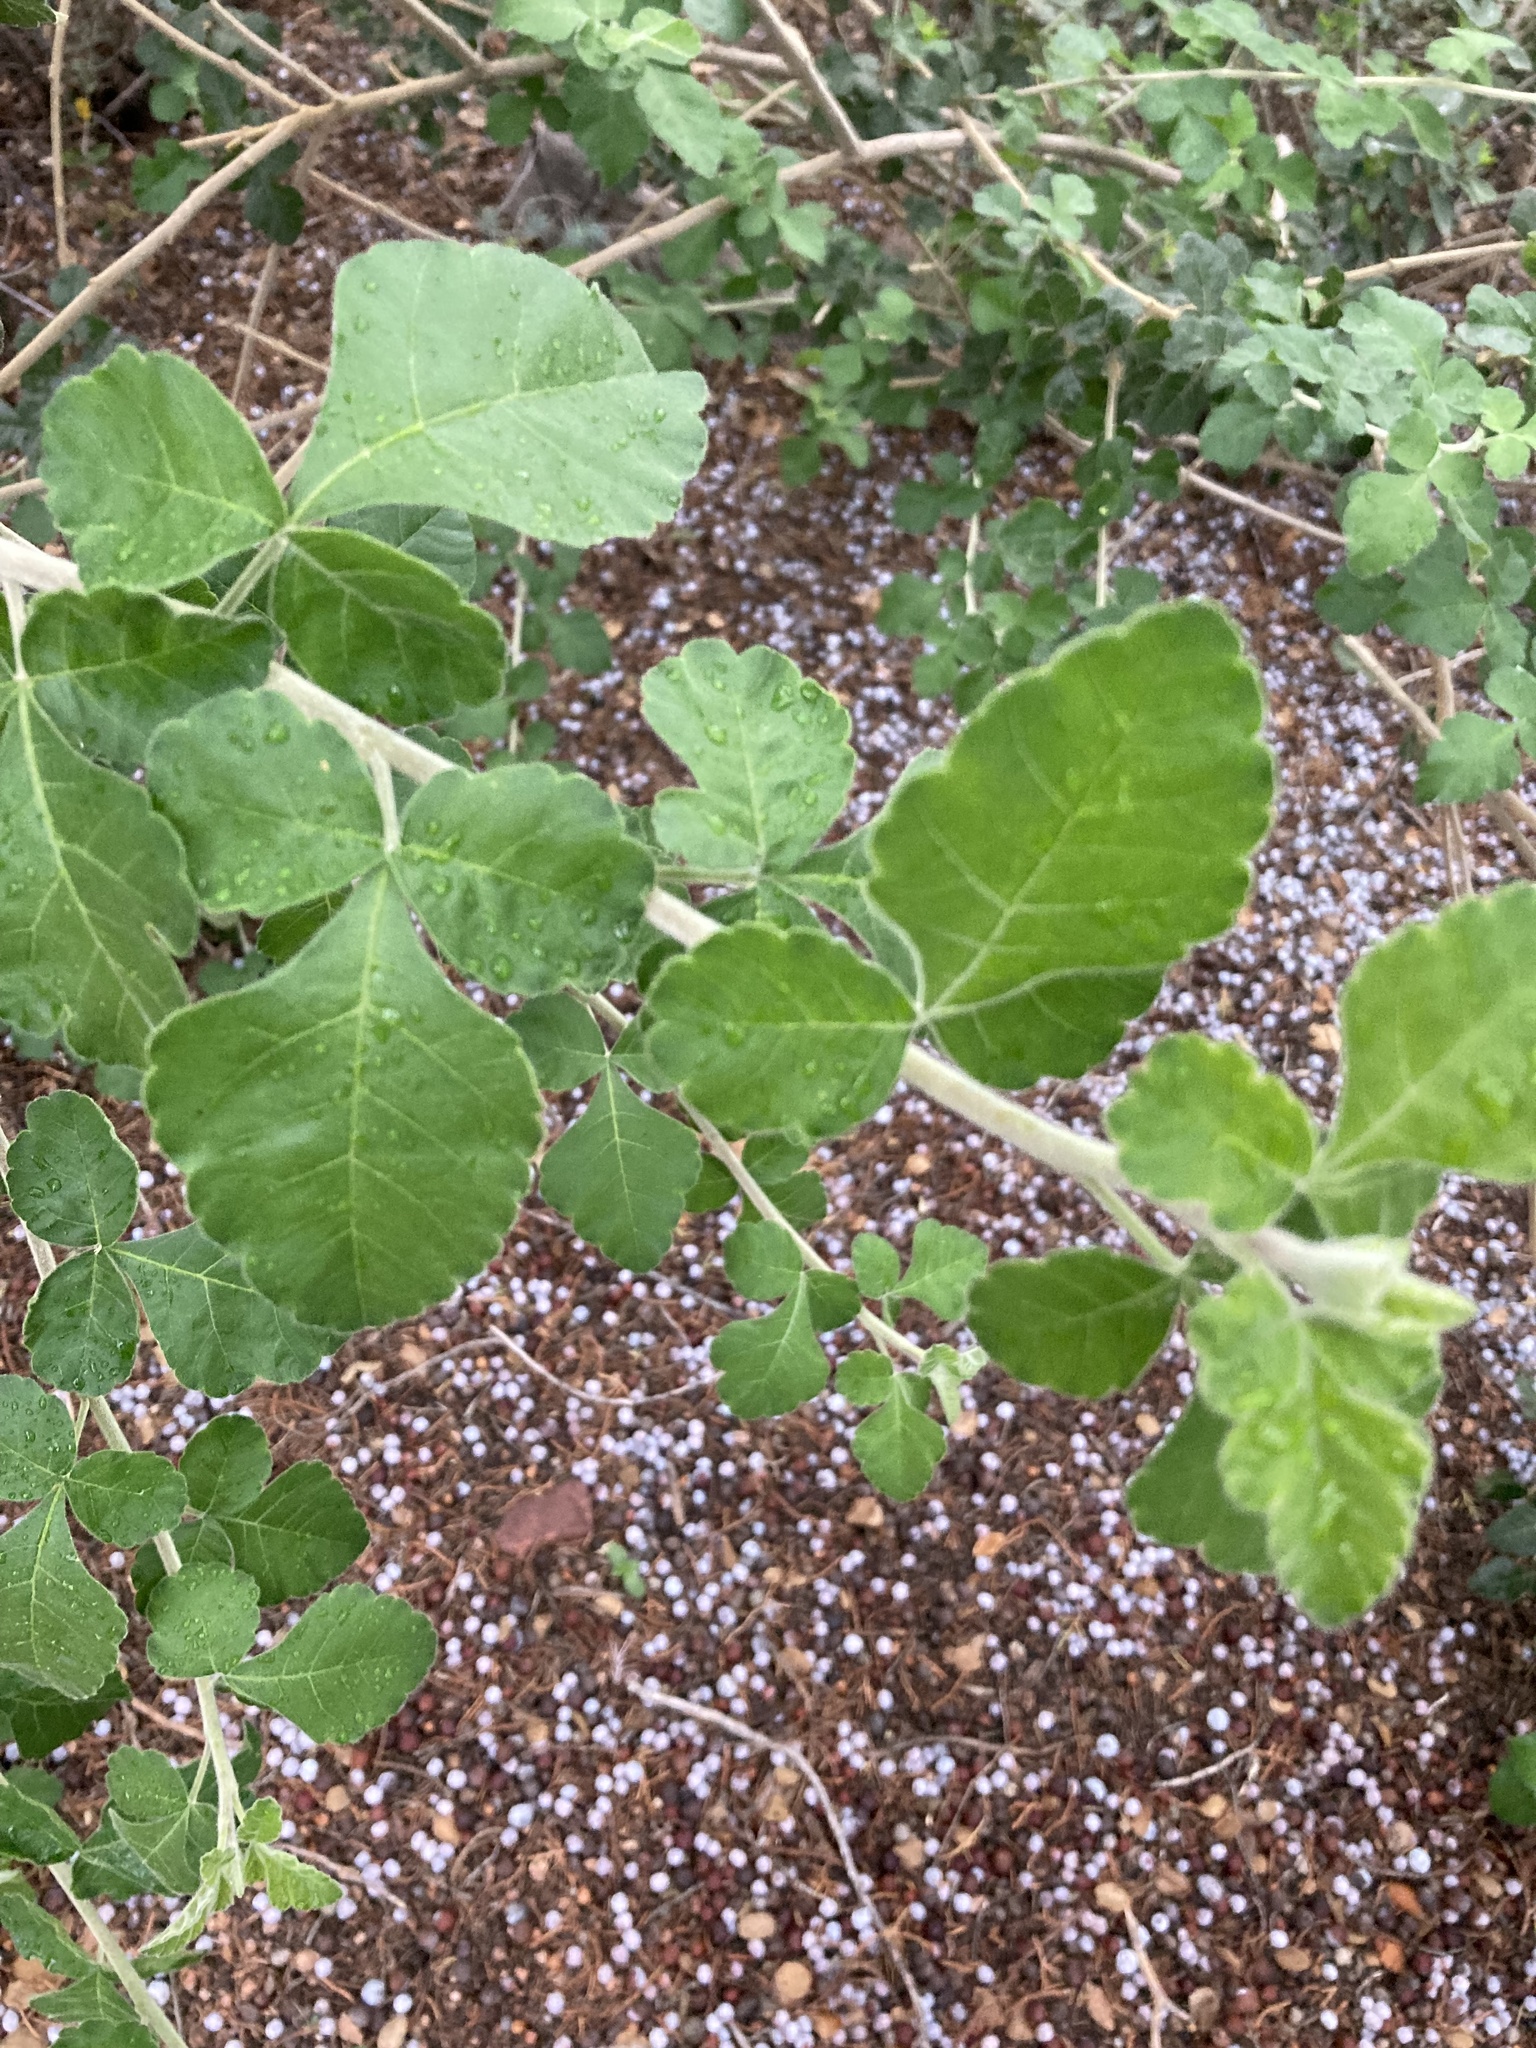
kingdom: Plantae
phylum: Tracheophyta
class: Magnoliopsida
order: Sapindales
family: Anacardiaceae
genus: Rhus
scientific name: Rhus aromatica
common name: Aromatic sumac
